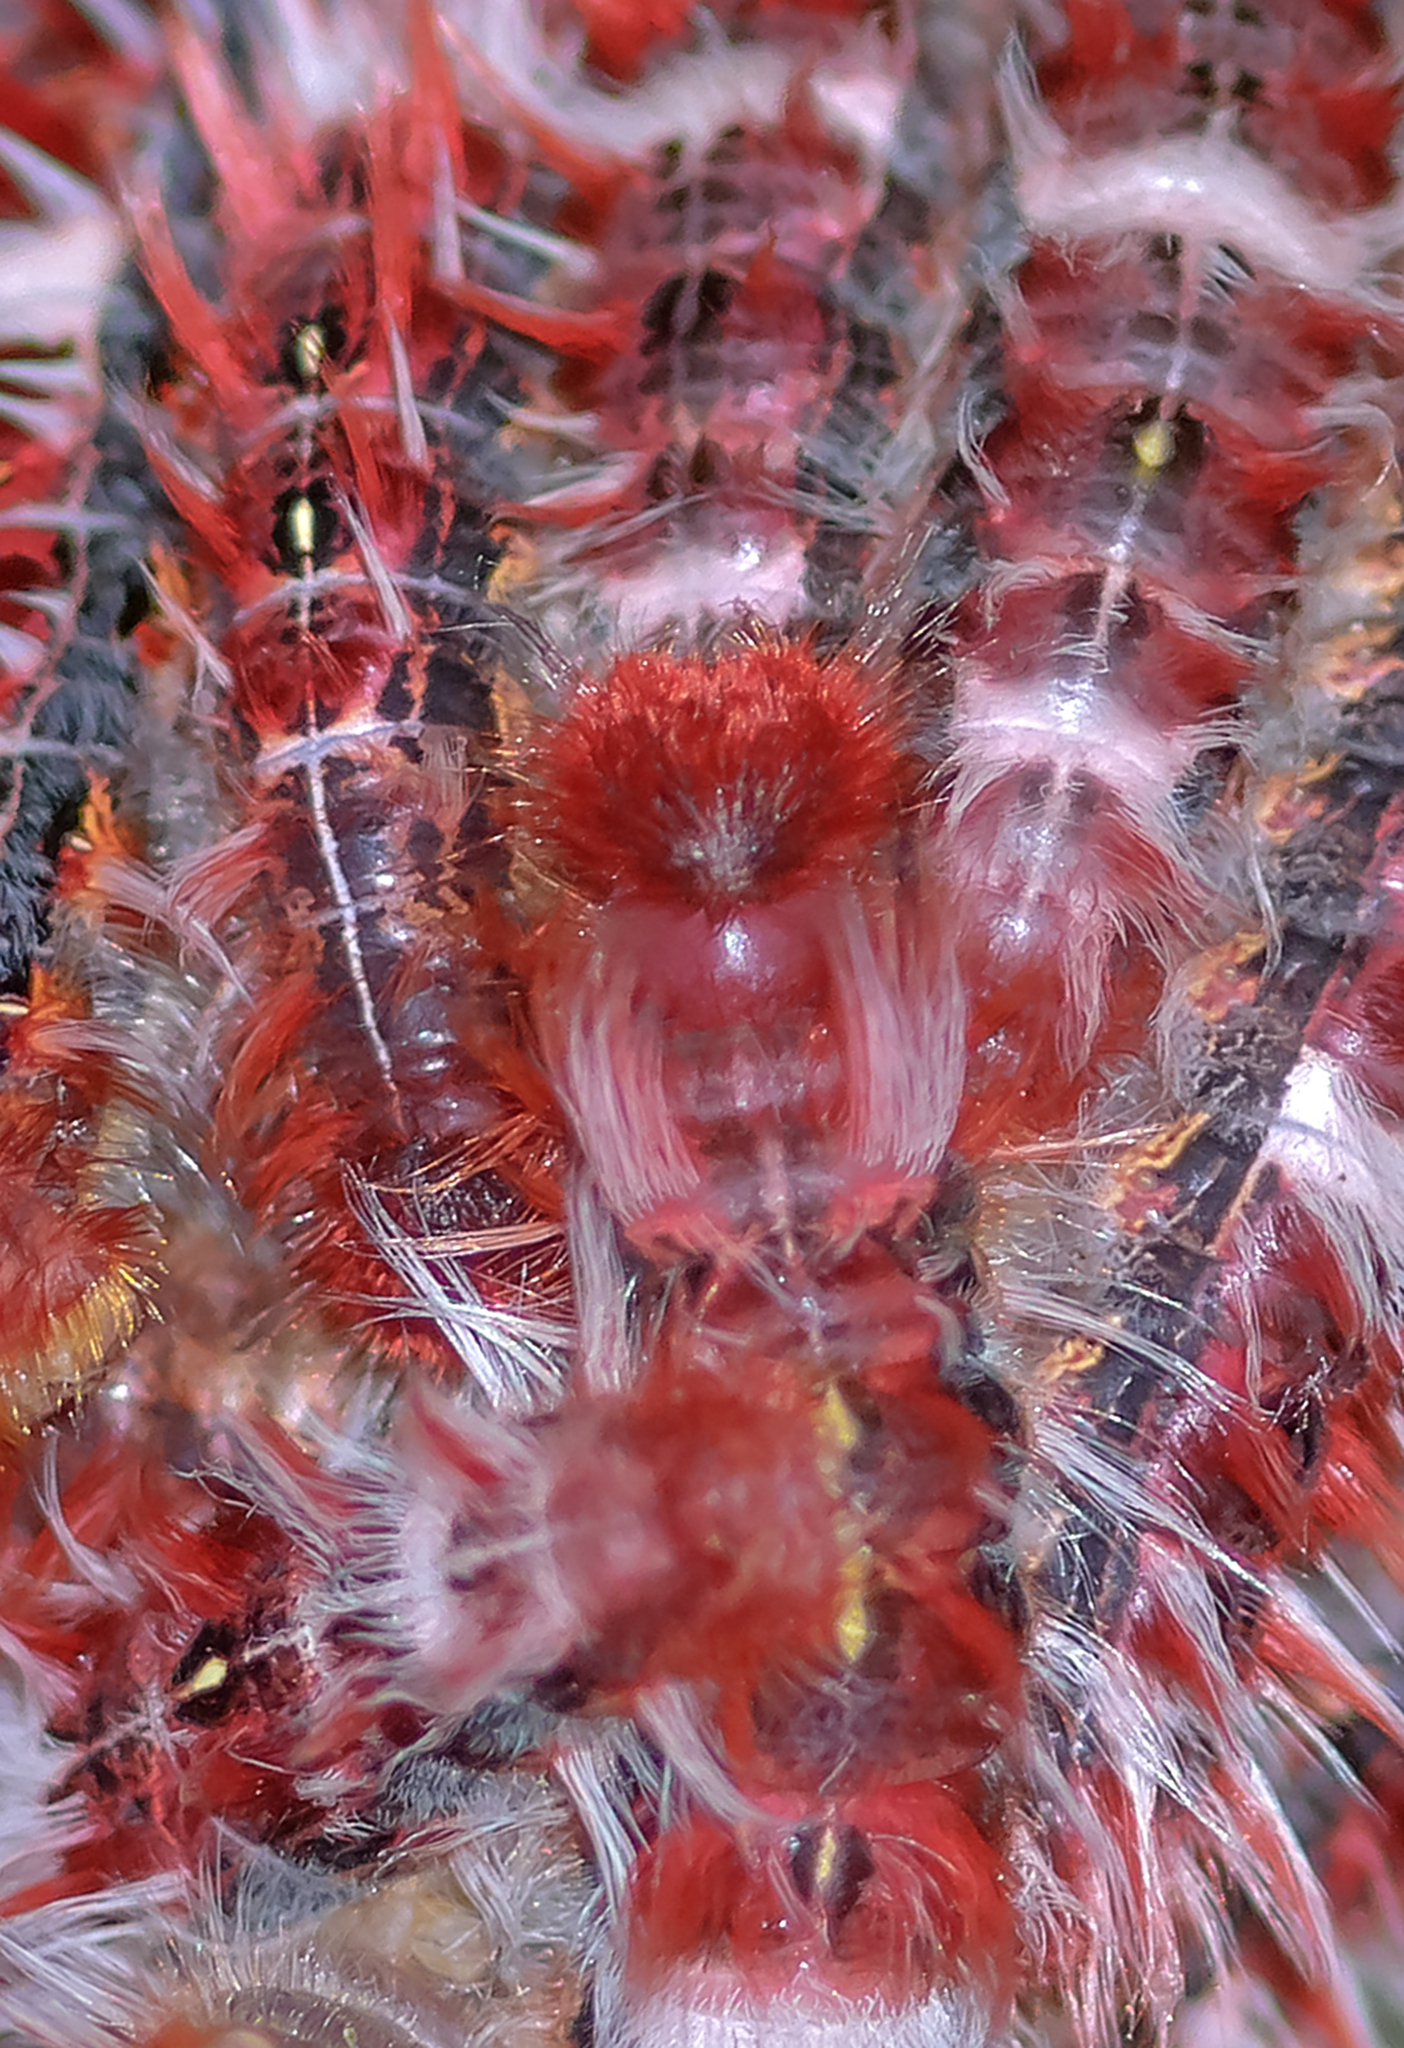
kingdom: Animalia
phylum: Arthropoda
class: Insecta
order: Lepidoptera
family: Nymphalidae
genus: Morpho
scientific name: Morpho epistrophus
